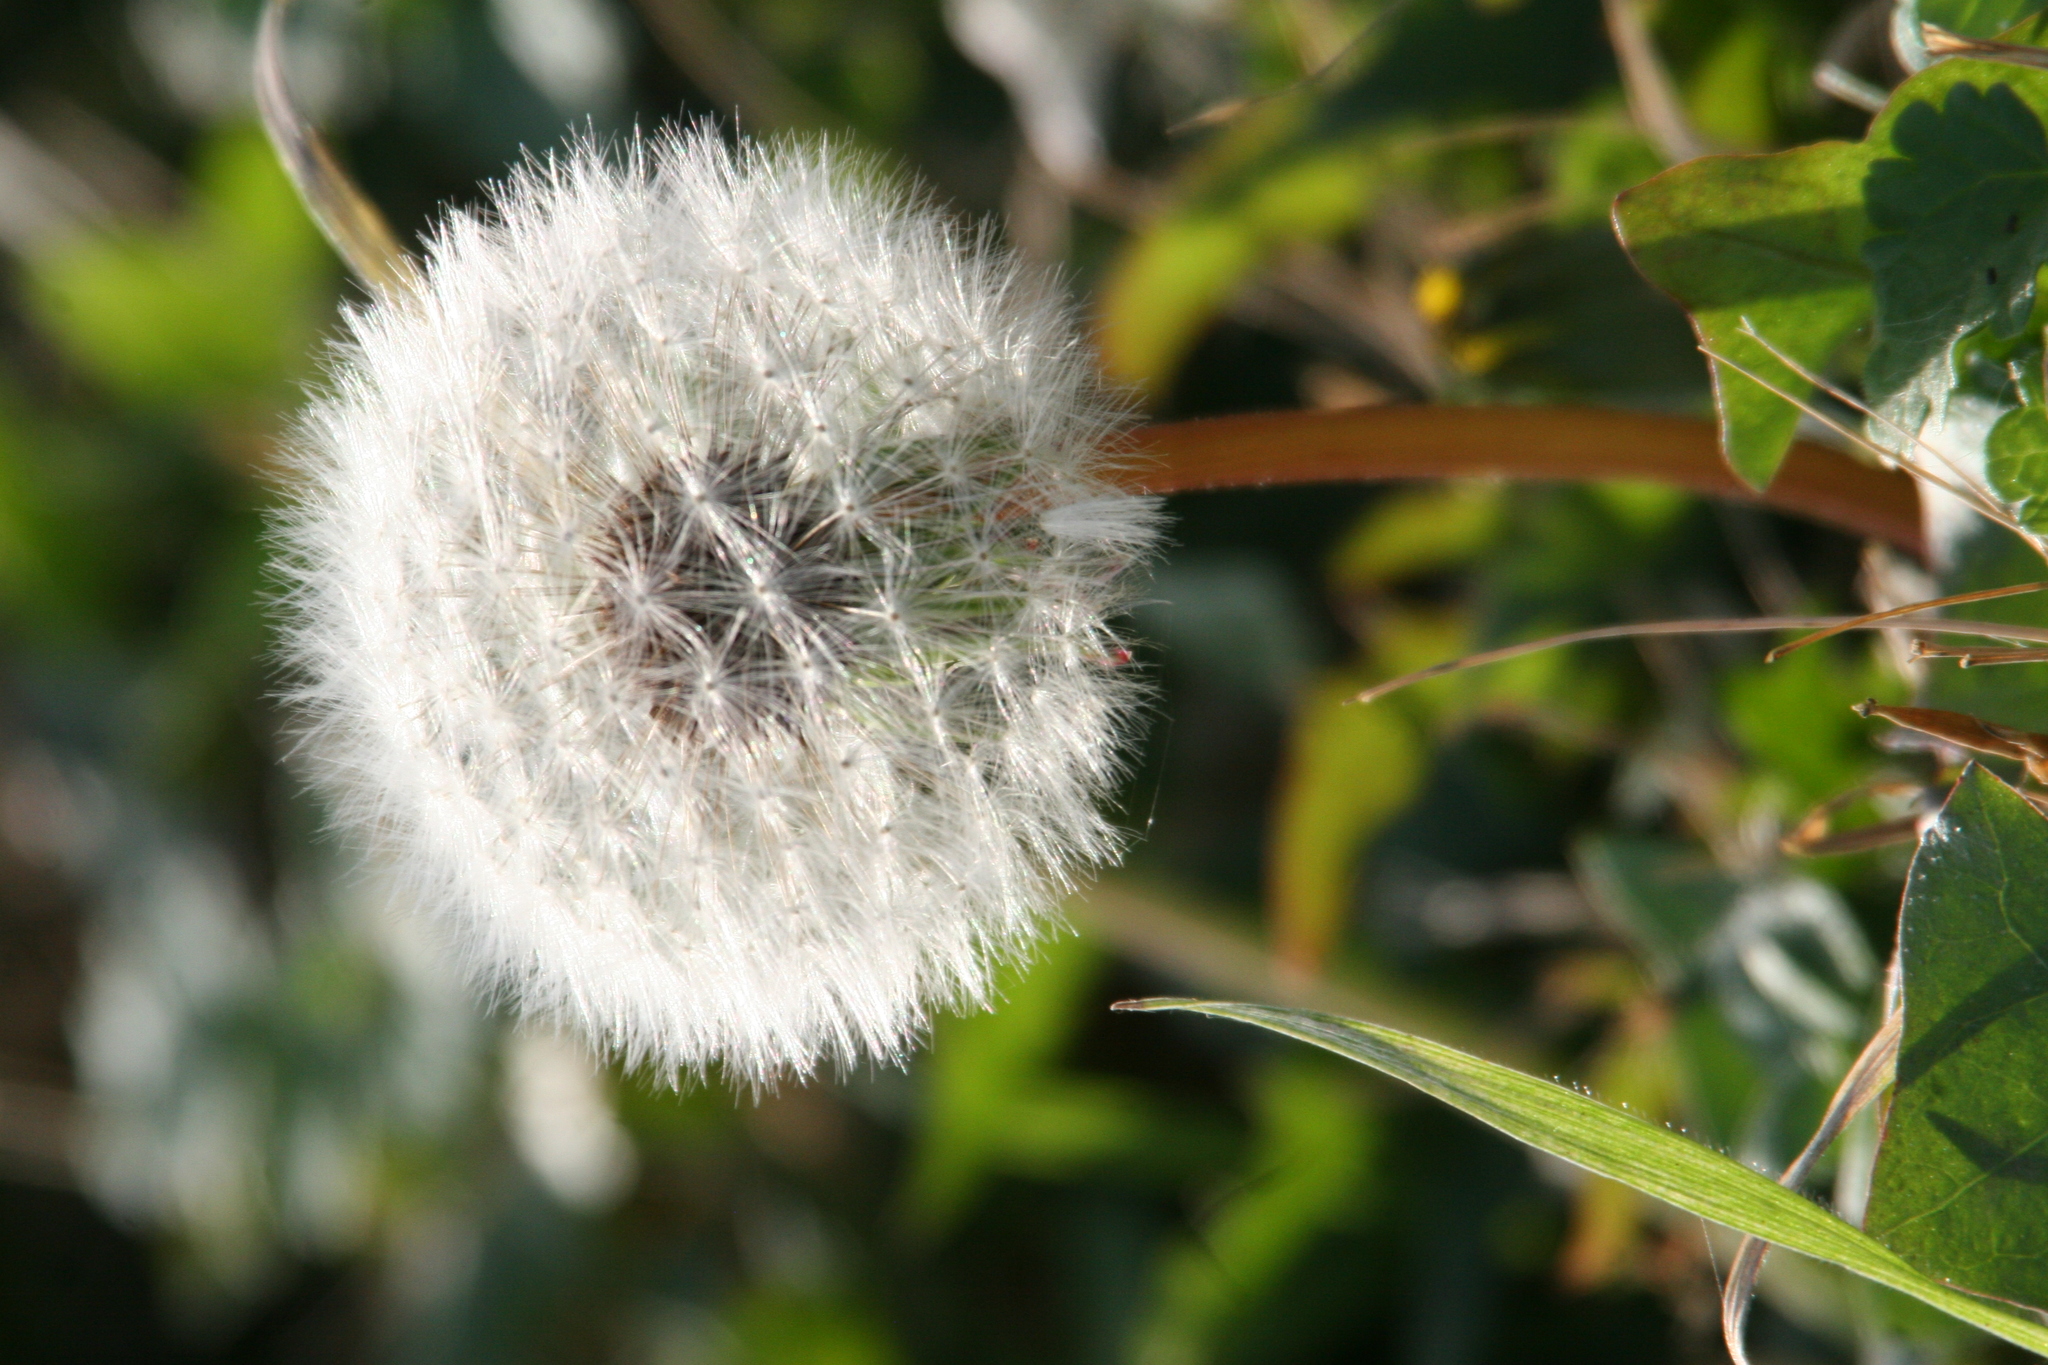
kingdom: Plantae
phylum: Tracheophyta
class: Magnoliopsida
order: Asterales
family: Asteraceae
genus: Taraxacum
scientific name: Taraxacum officinale
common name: Common dandelion
